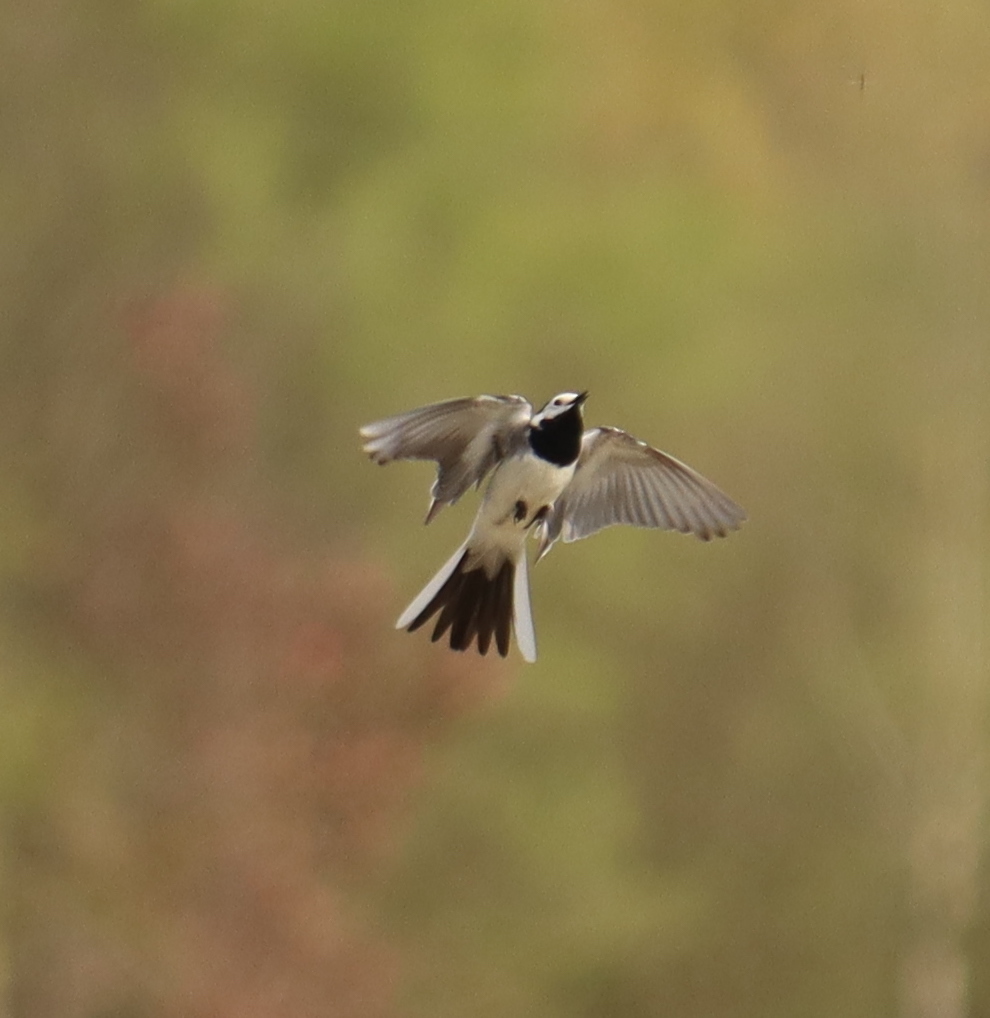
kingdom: Animalia
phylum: Chordata
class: Aves
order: Passeriformes
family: Motacillidae
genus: Motacilla
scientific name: Motacilla alba
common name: White wagtail
